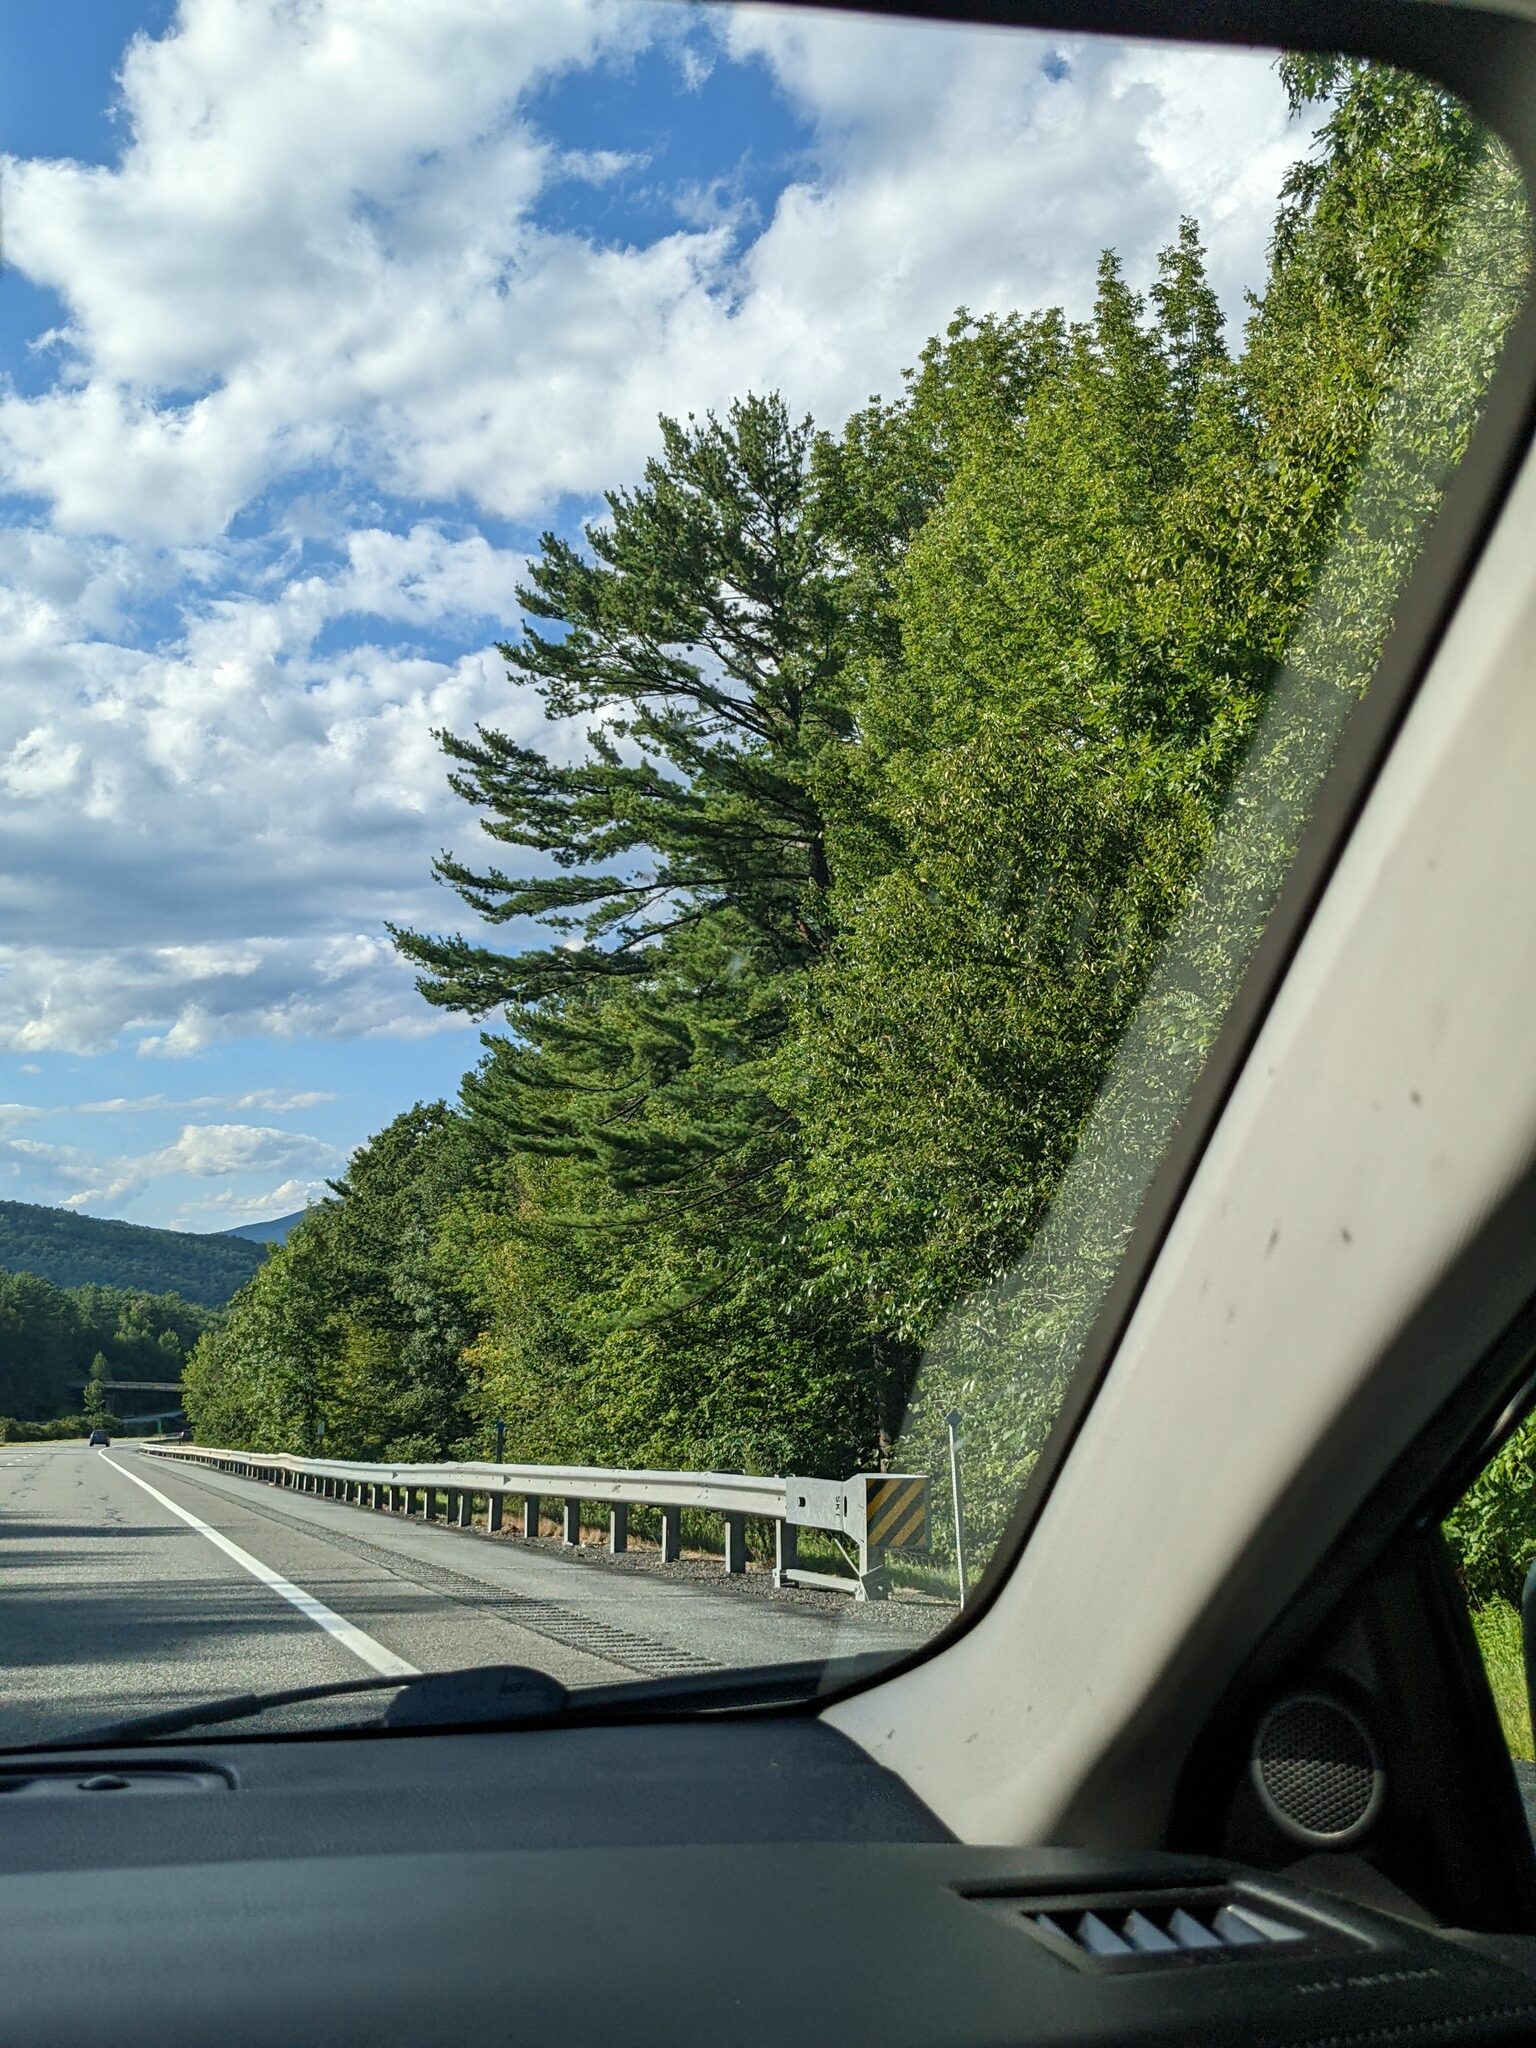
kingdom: Plantae
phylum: Tracheophyta
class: Pinopsida
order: Pinales
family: Pinaceae
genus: Pinus
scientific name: Pinus strobus
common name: Weymouth pine
